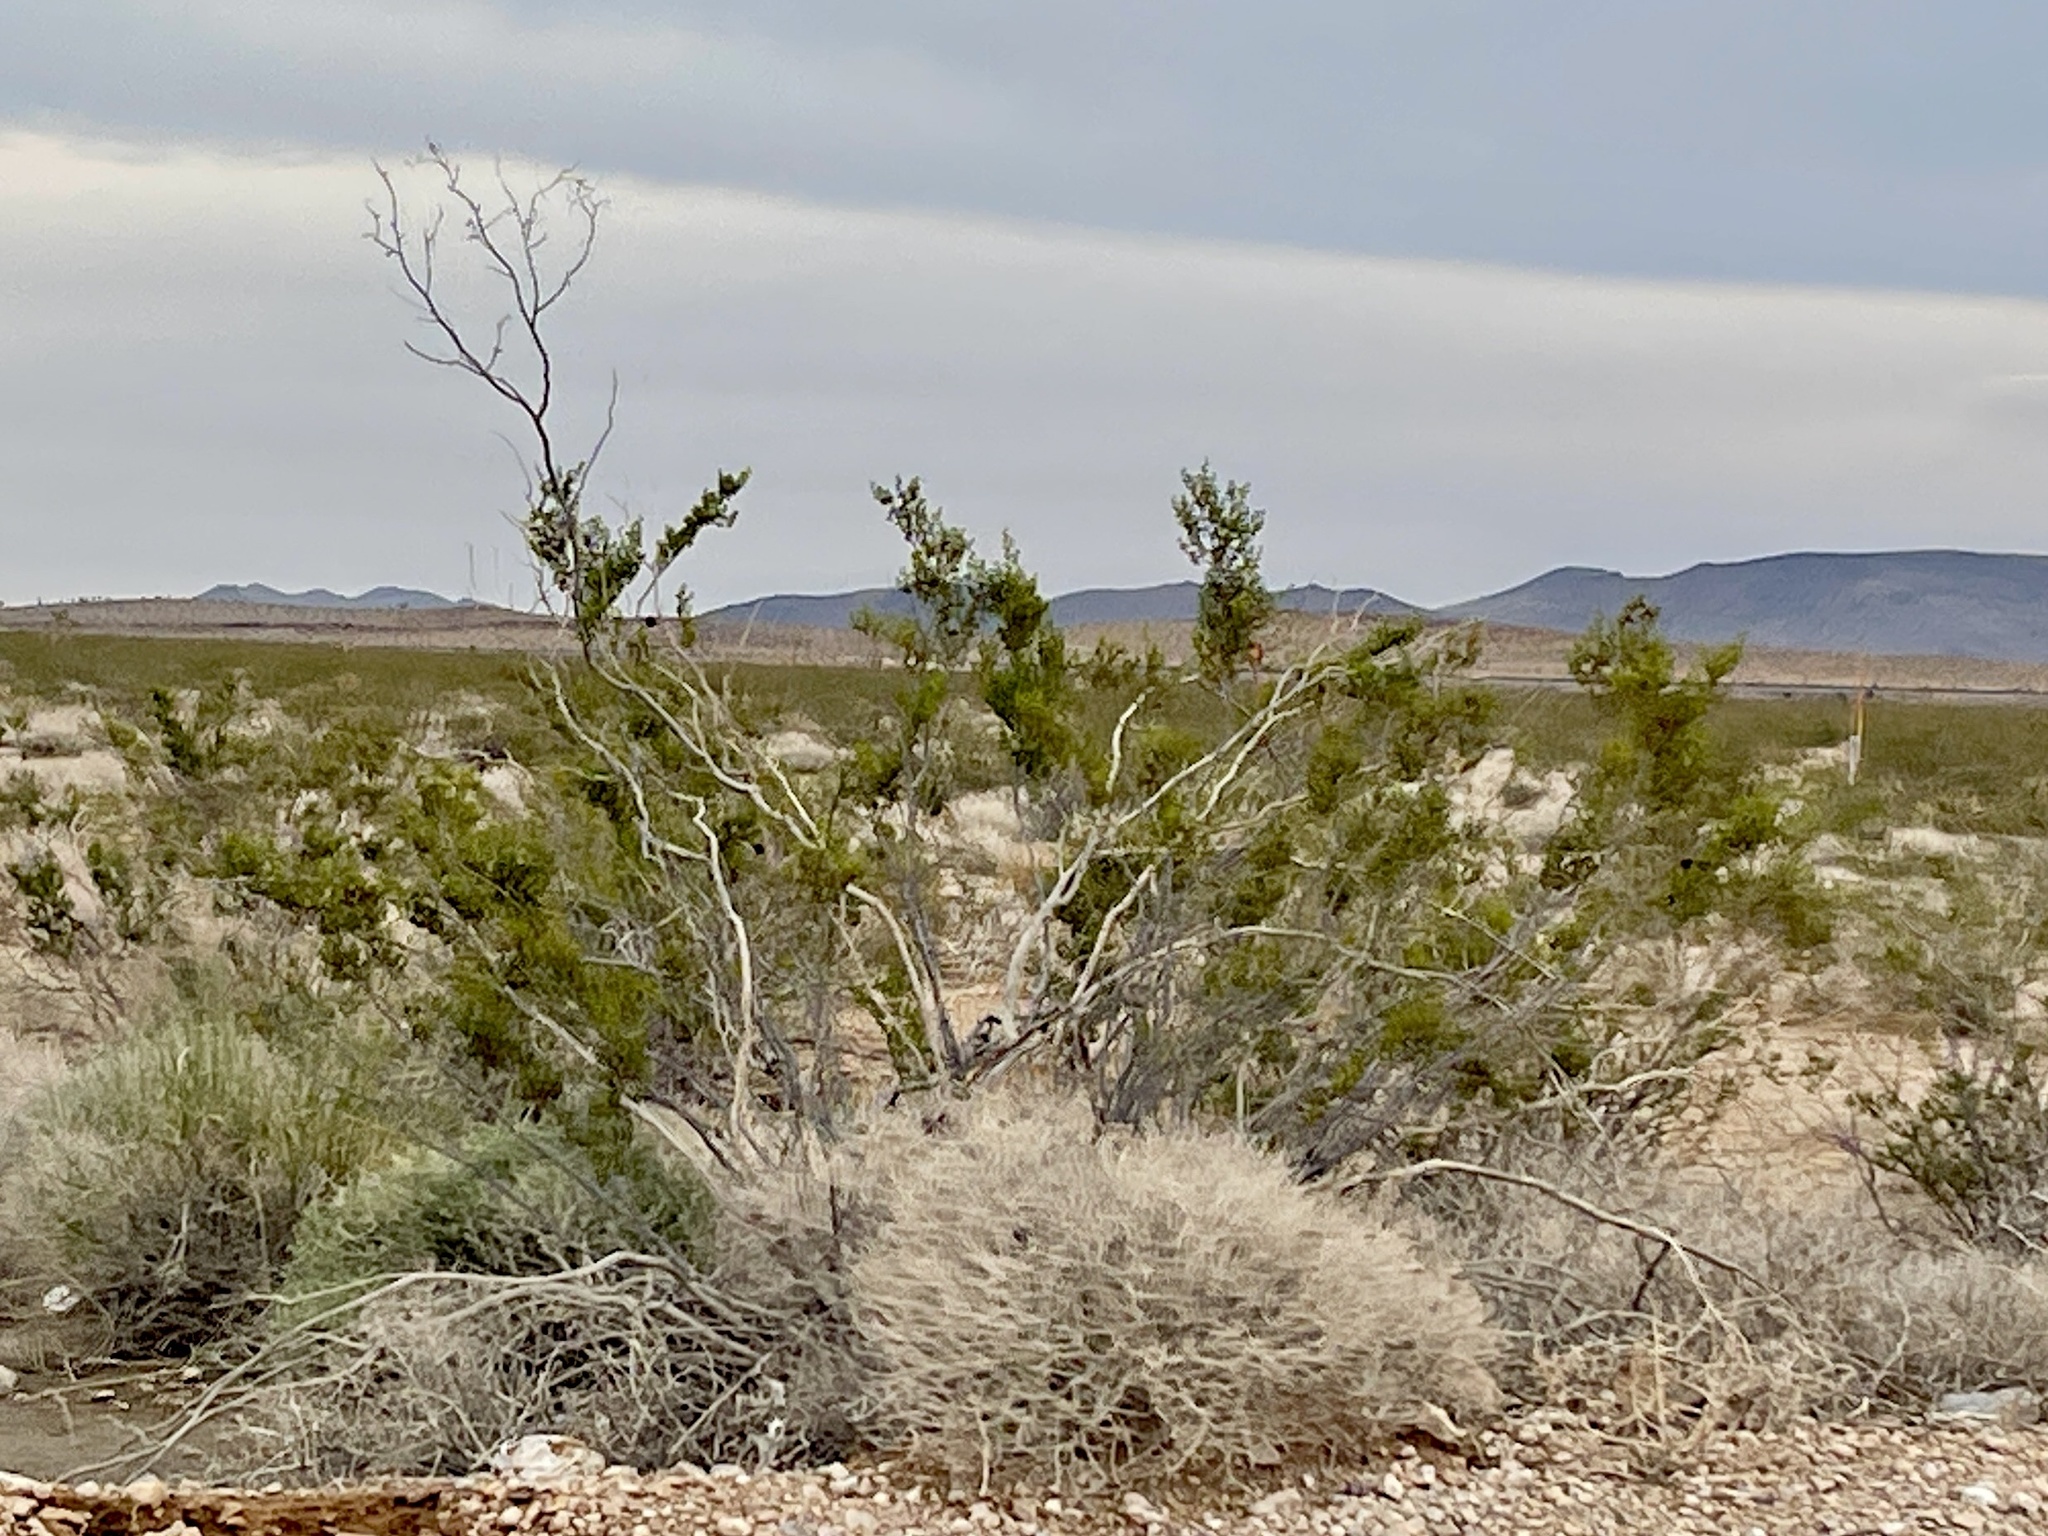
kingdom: Plantae
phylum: Tracheophyta
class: Magnoliopsida
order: Zygophyllales
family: Zygophyllaceae
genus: Larrea
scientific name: Larrea tridentata
